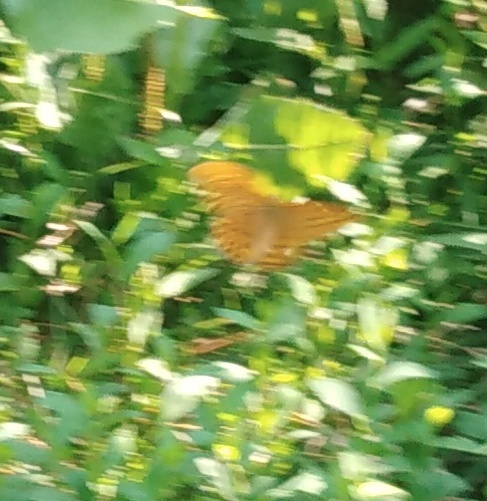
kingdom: Animalia
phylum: Arthropoda
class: Insecta
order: Lepidoptera
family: Nymphalidae
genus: Argynnis
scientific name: Argynnis paphia
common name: Silver-washed fritillary
